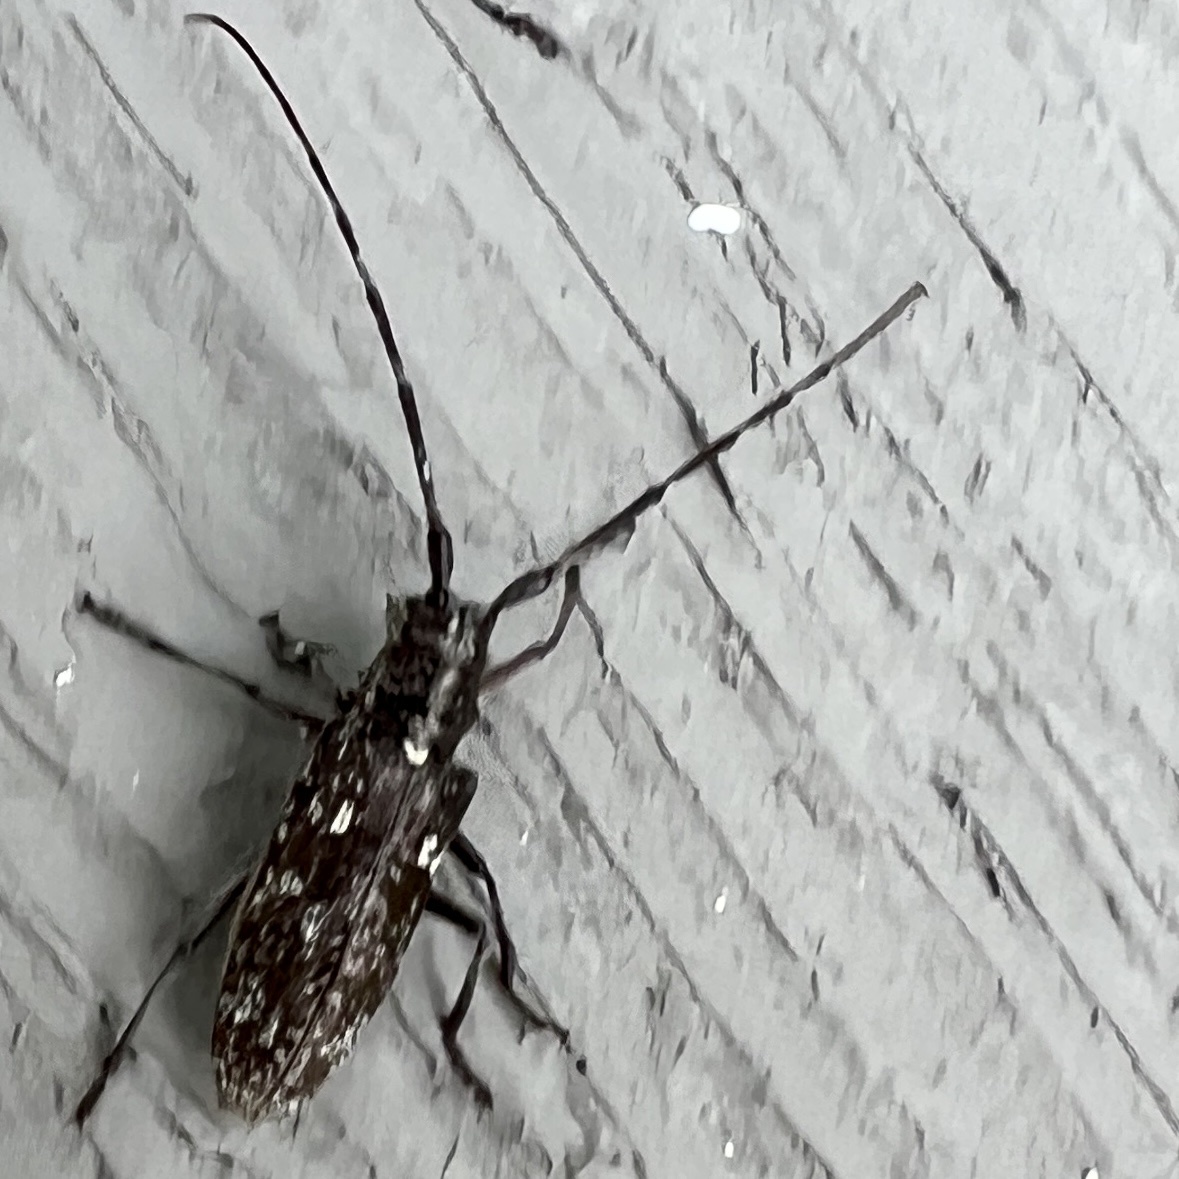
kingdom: Animalia
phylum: Arthropoda
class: Insecta
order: Coleoptera
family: Cerambycidae
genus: Monochamus
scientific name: Monochamus scutellatus
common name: White-spotted sawyer beetle
